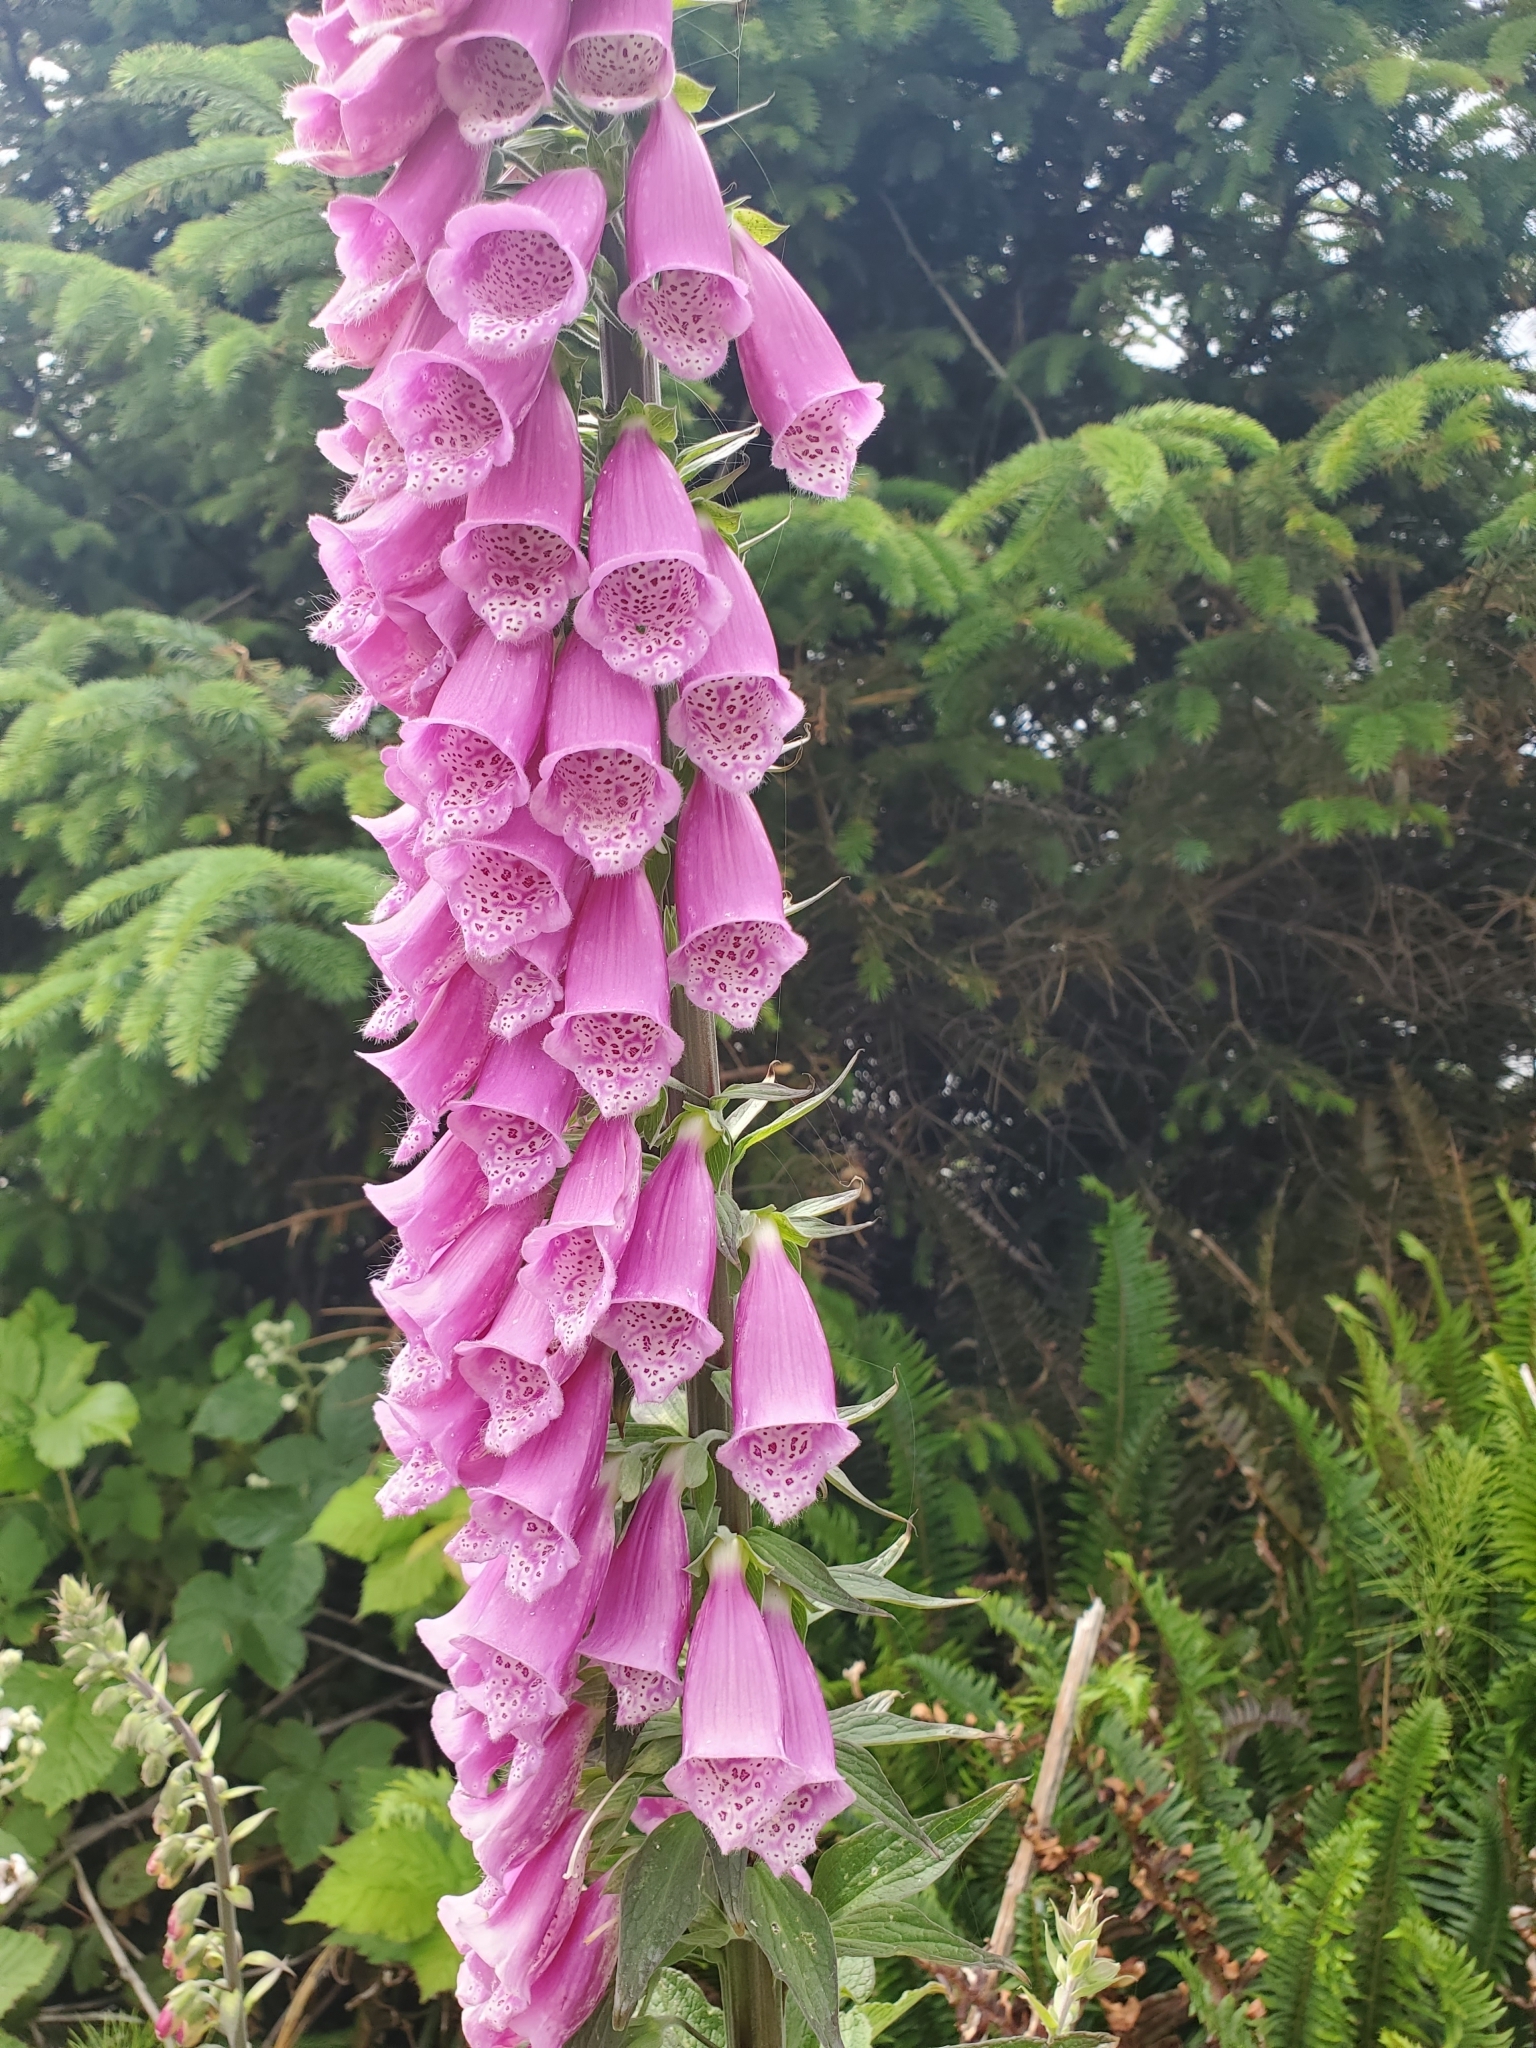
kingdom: Plantae
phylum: Tracheophyta
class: Magnoliopsida
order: Lamiales
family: Plantaginaceae
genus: Digitalis
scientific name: Digitalis purpurea
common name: Foxglove
